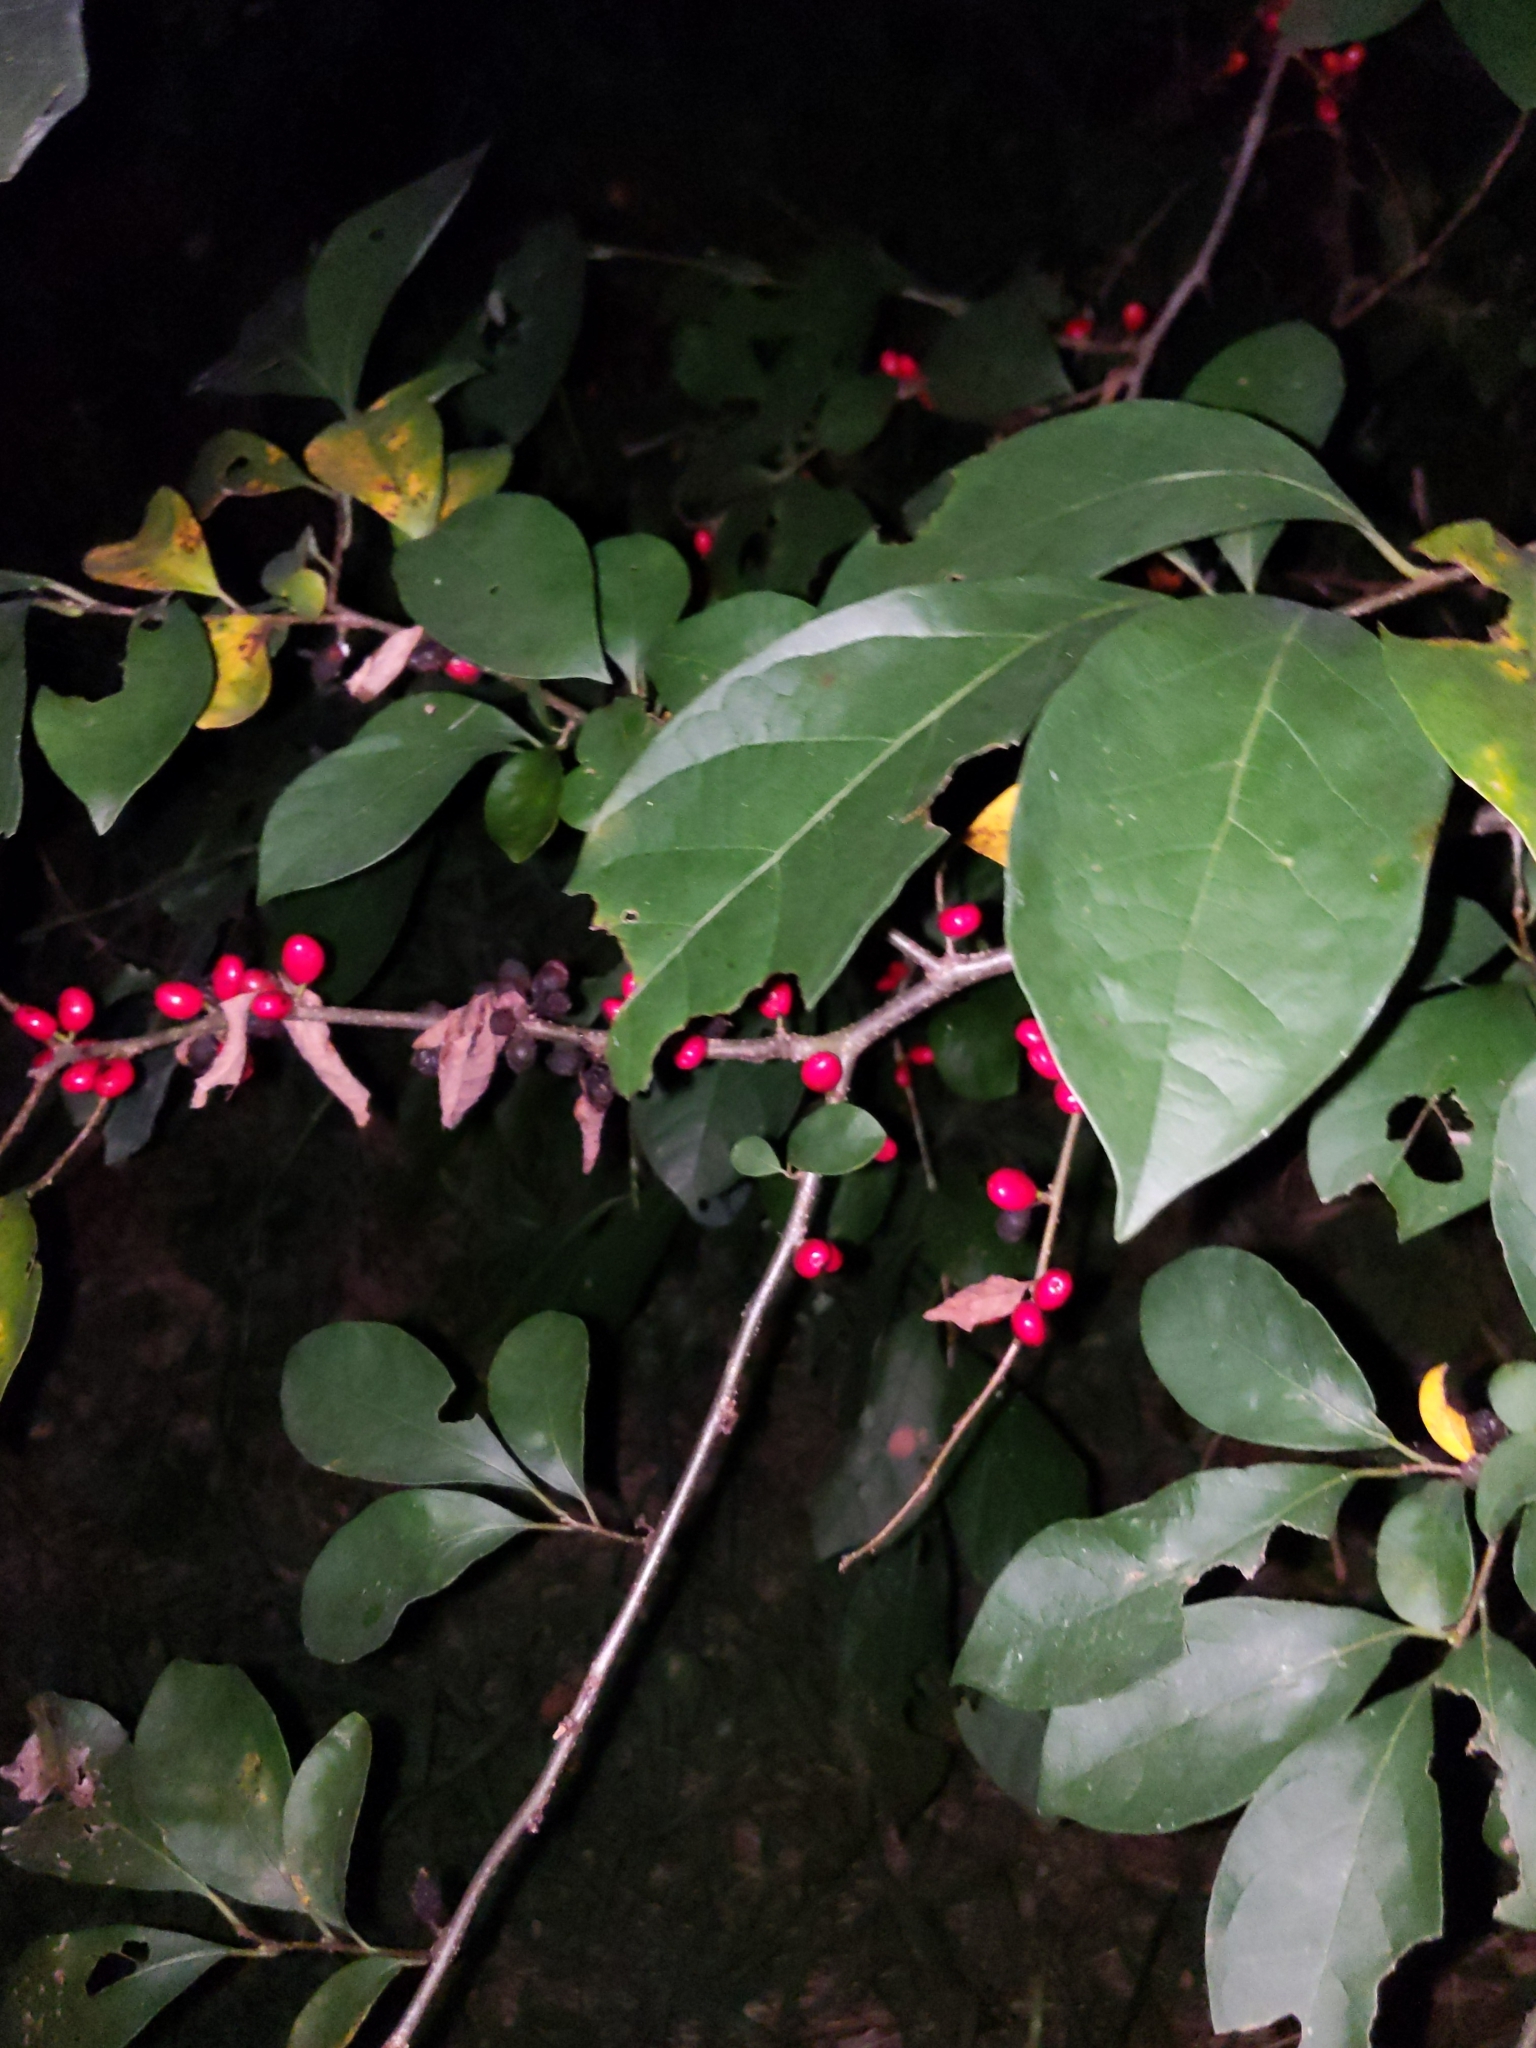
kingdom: Plantae
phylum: Tracheophyta
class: Magnoliopsida
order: Laurales
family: Lauraceae
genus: Lindera
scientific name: Lindera benzoin
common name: Spicebush
